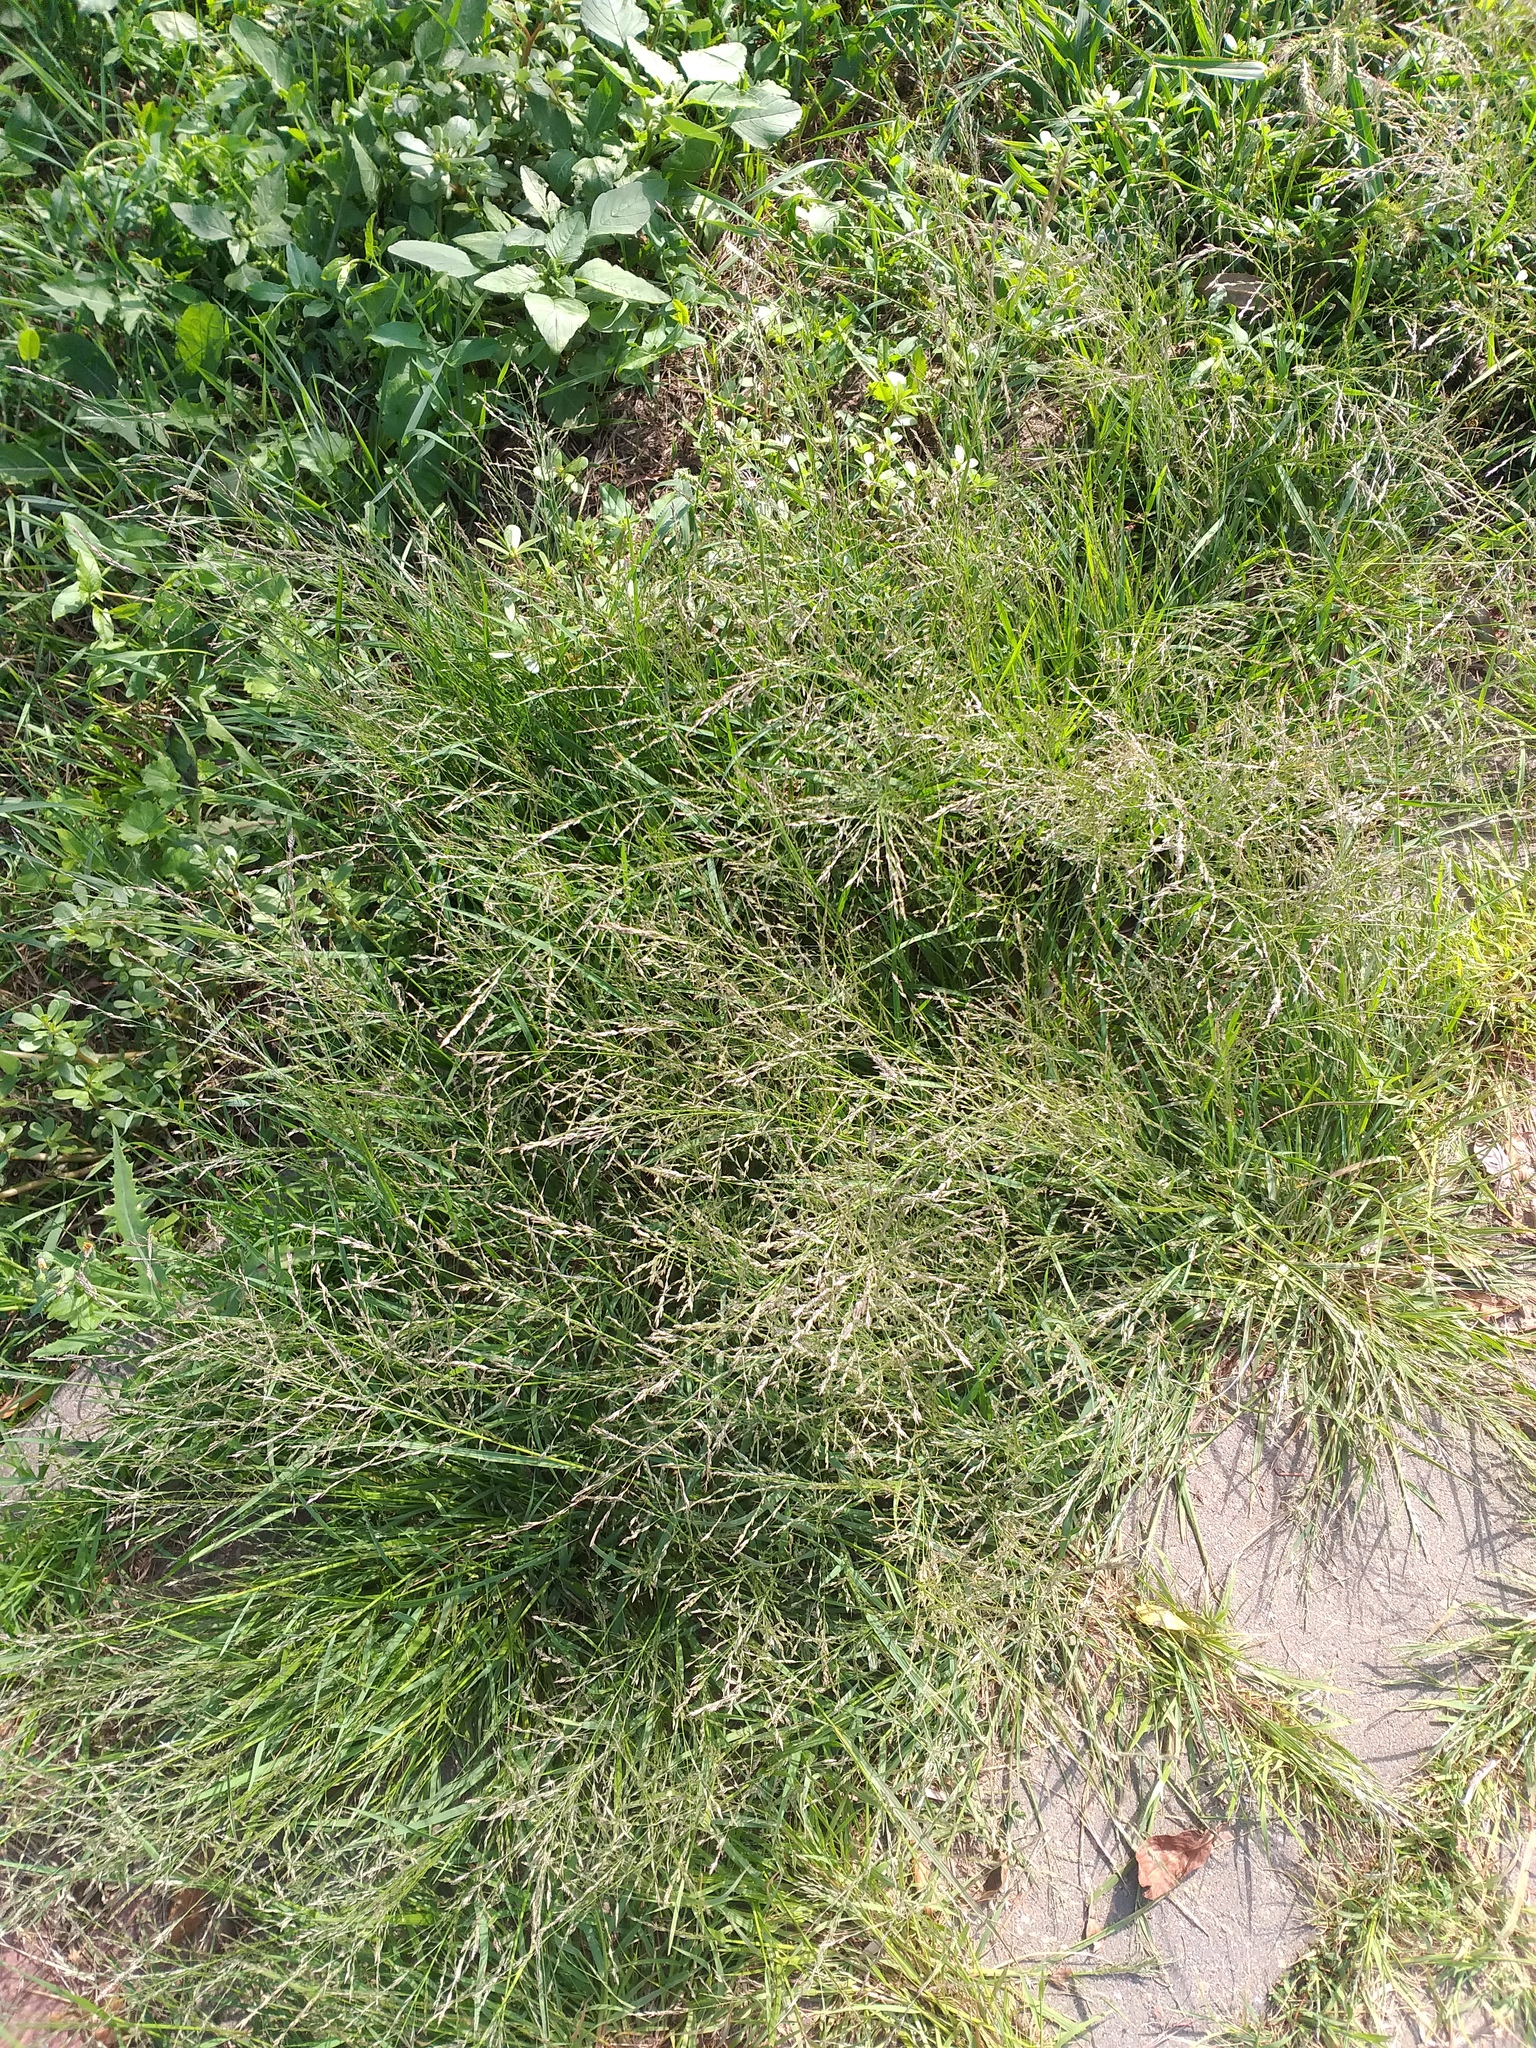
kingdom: Plantae
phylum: Tracheophyta
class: Liliopsida
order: Poales
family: Poaceae
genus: Eragrostis
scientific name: Eragrostis pilosa
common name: Indian lovegrass
